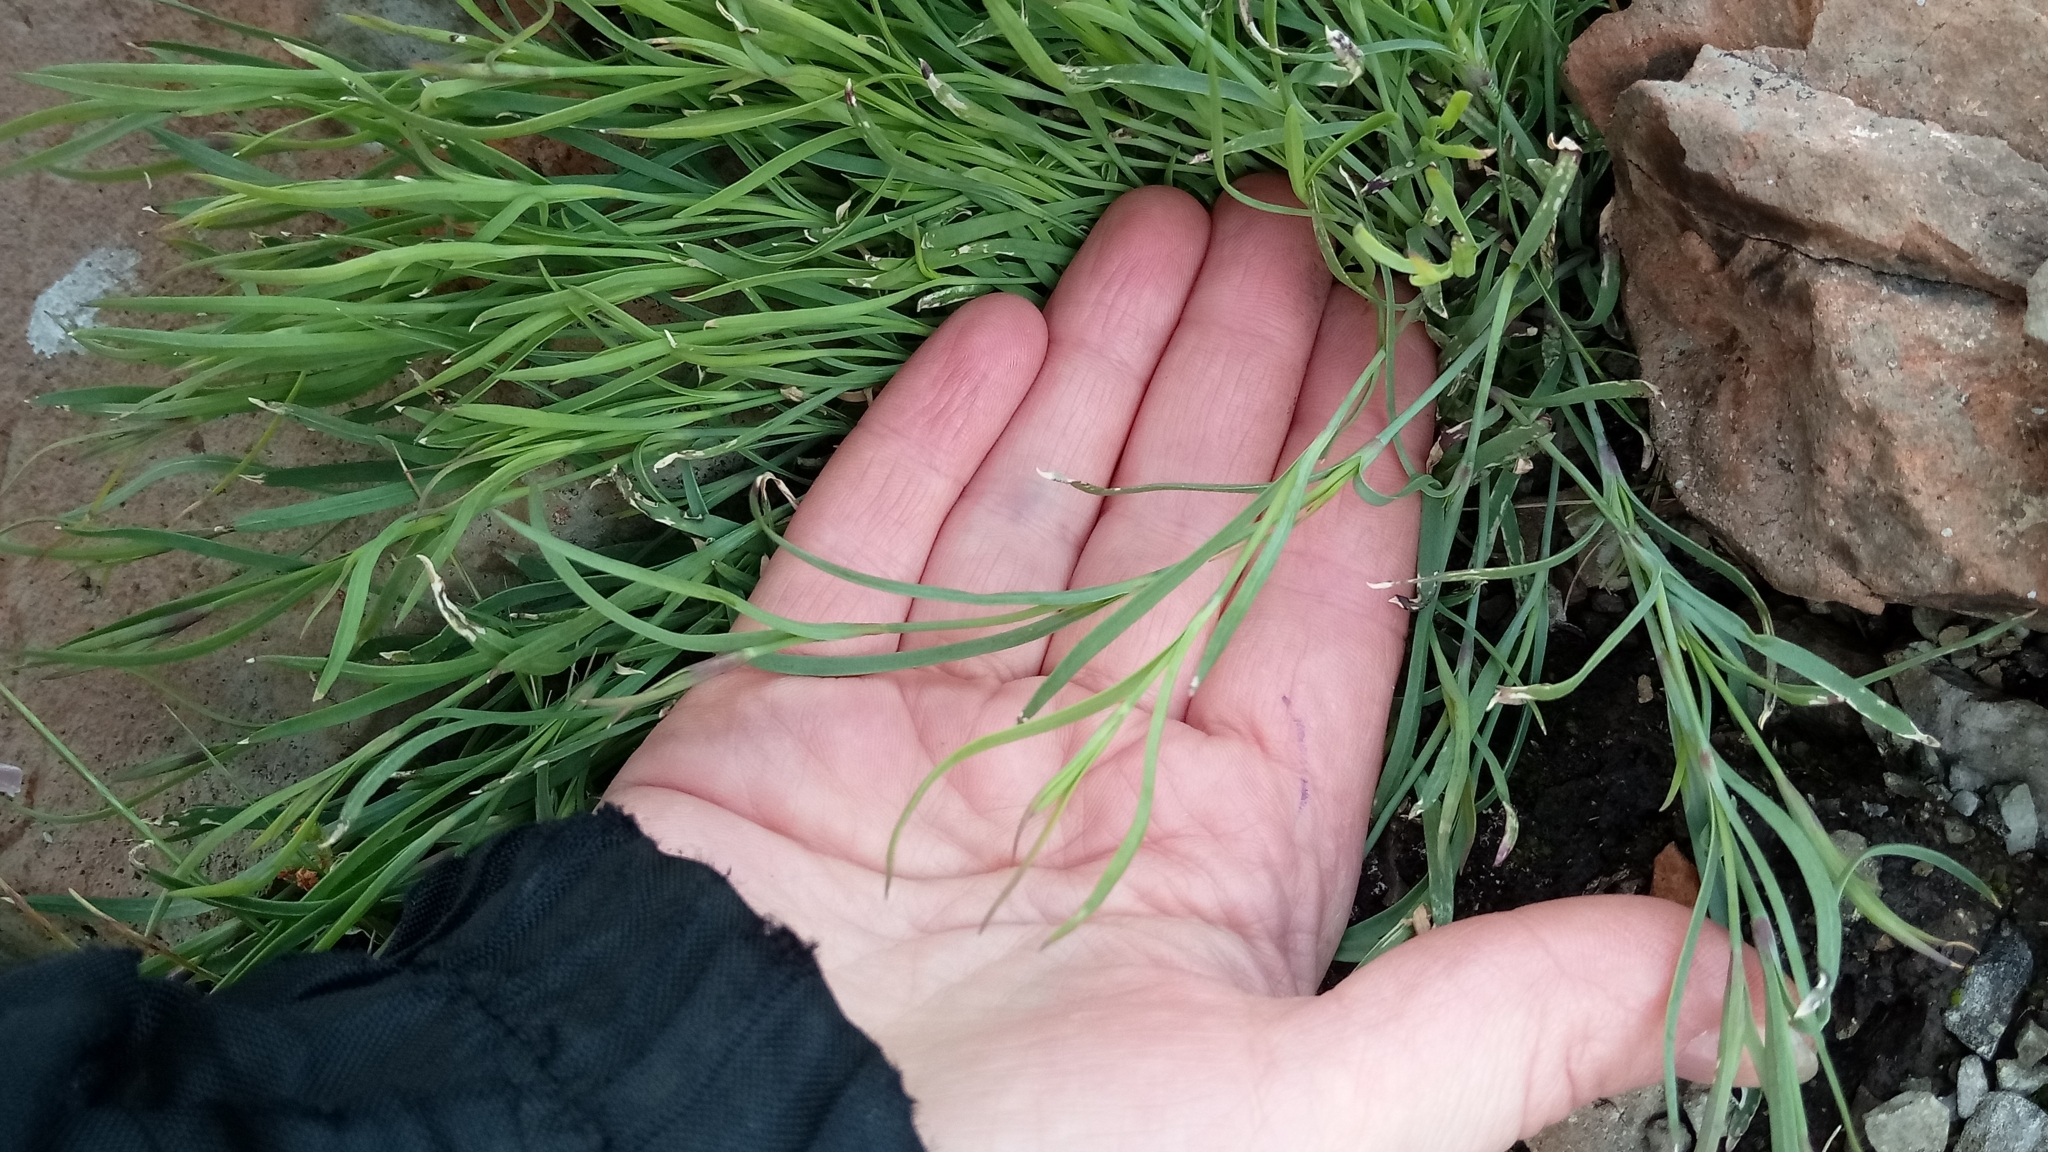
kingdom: Plantae
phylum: Tracheophyta
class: Magnoliopsida
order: Caryophyllales
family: Caryophyllaceae
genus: Dianthus
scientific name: Dianthus repens
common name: Northern pink
